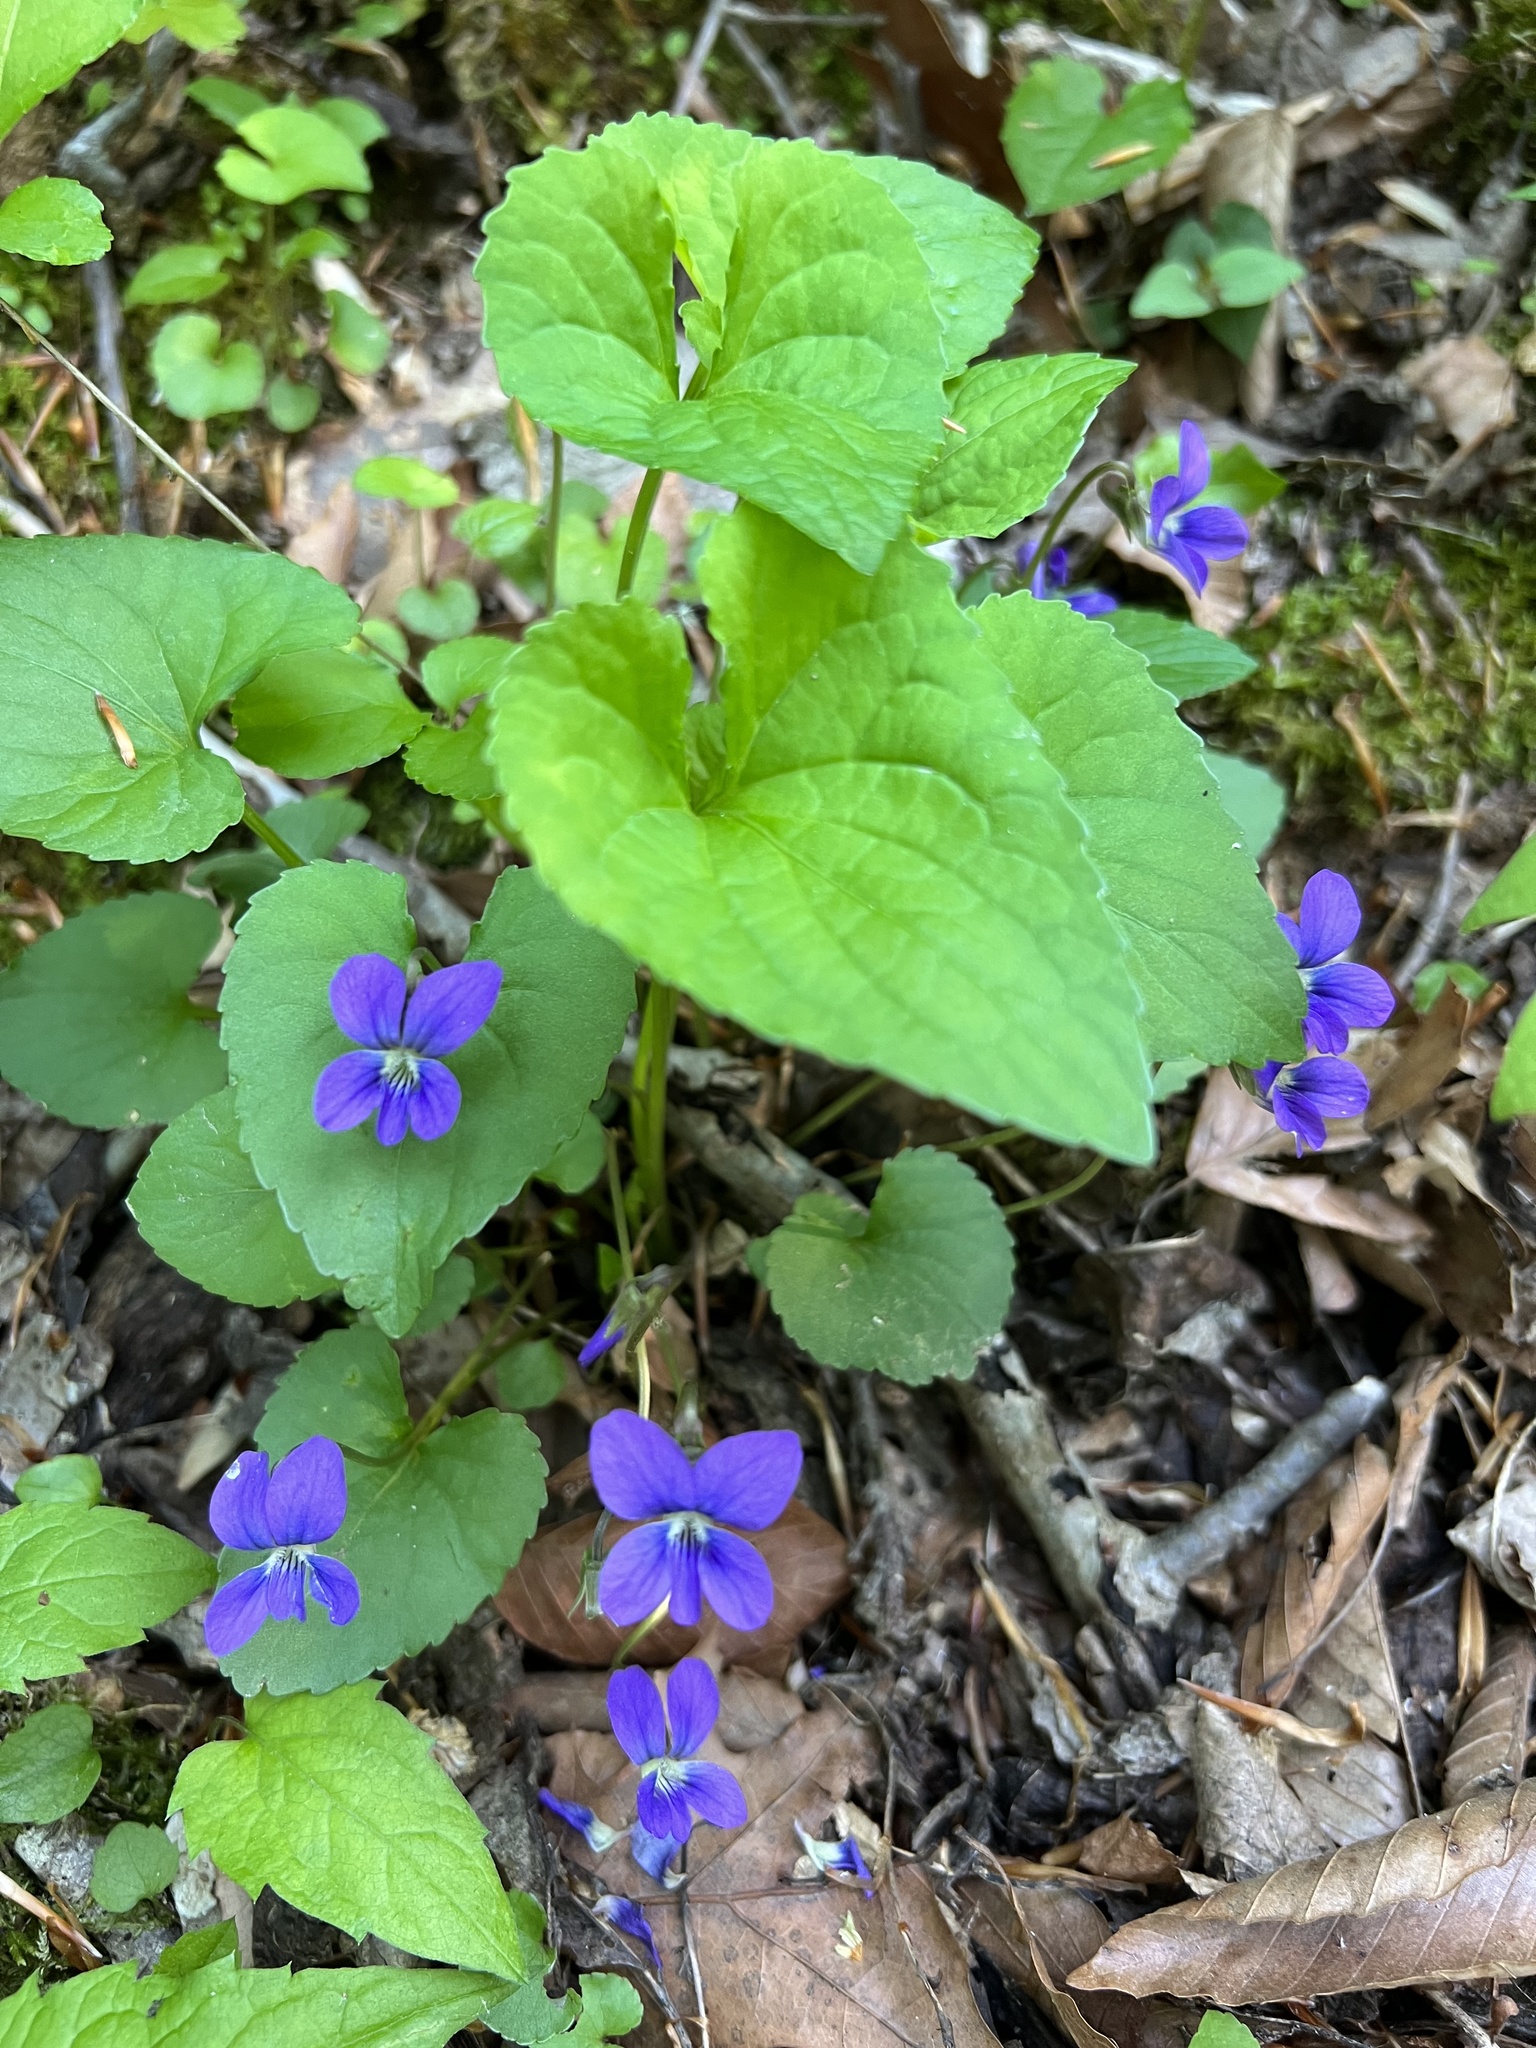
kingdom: Plantae
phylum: Tracheophyta
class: Magnoliopsida
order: Malpighiales
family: Violaceae
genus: Viola
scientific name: Viola sororia
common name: Dooryard violet
